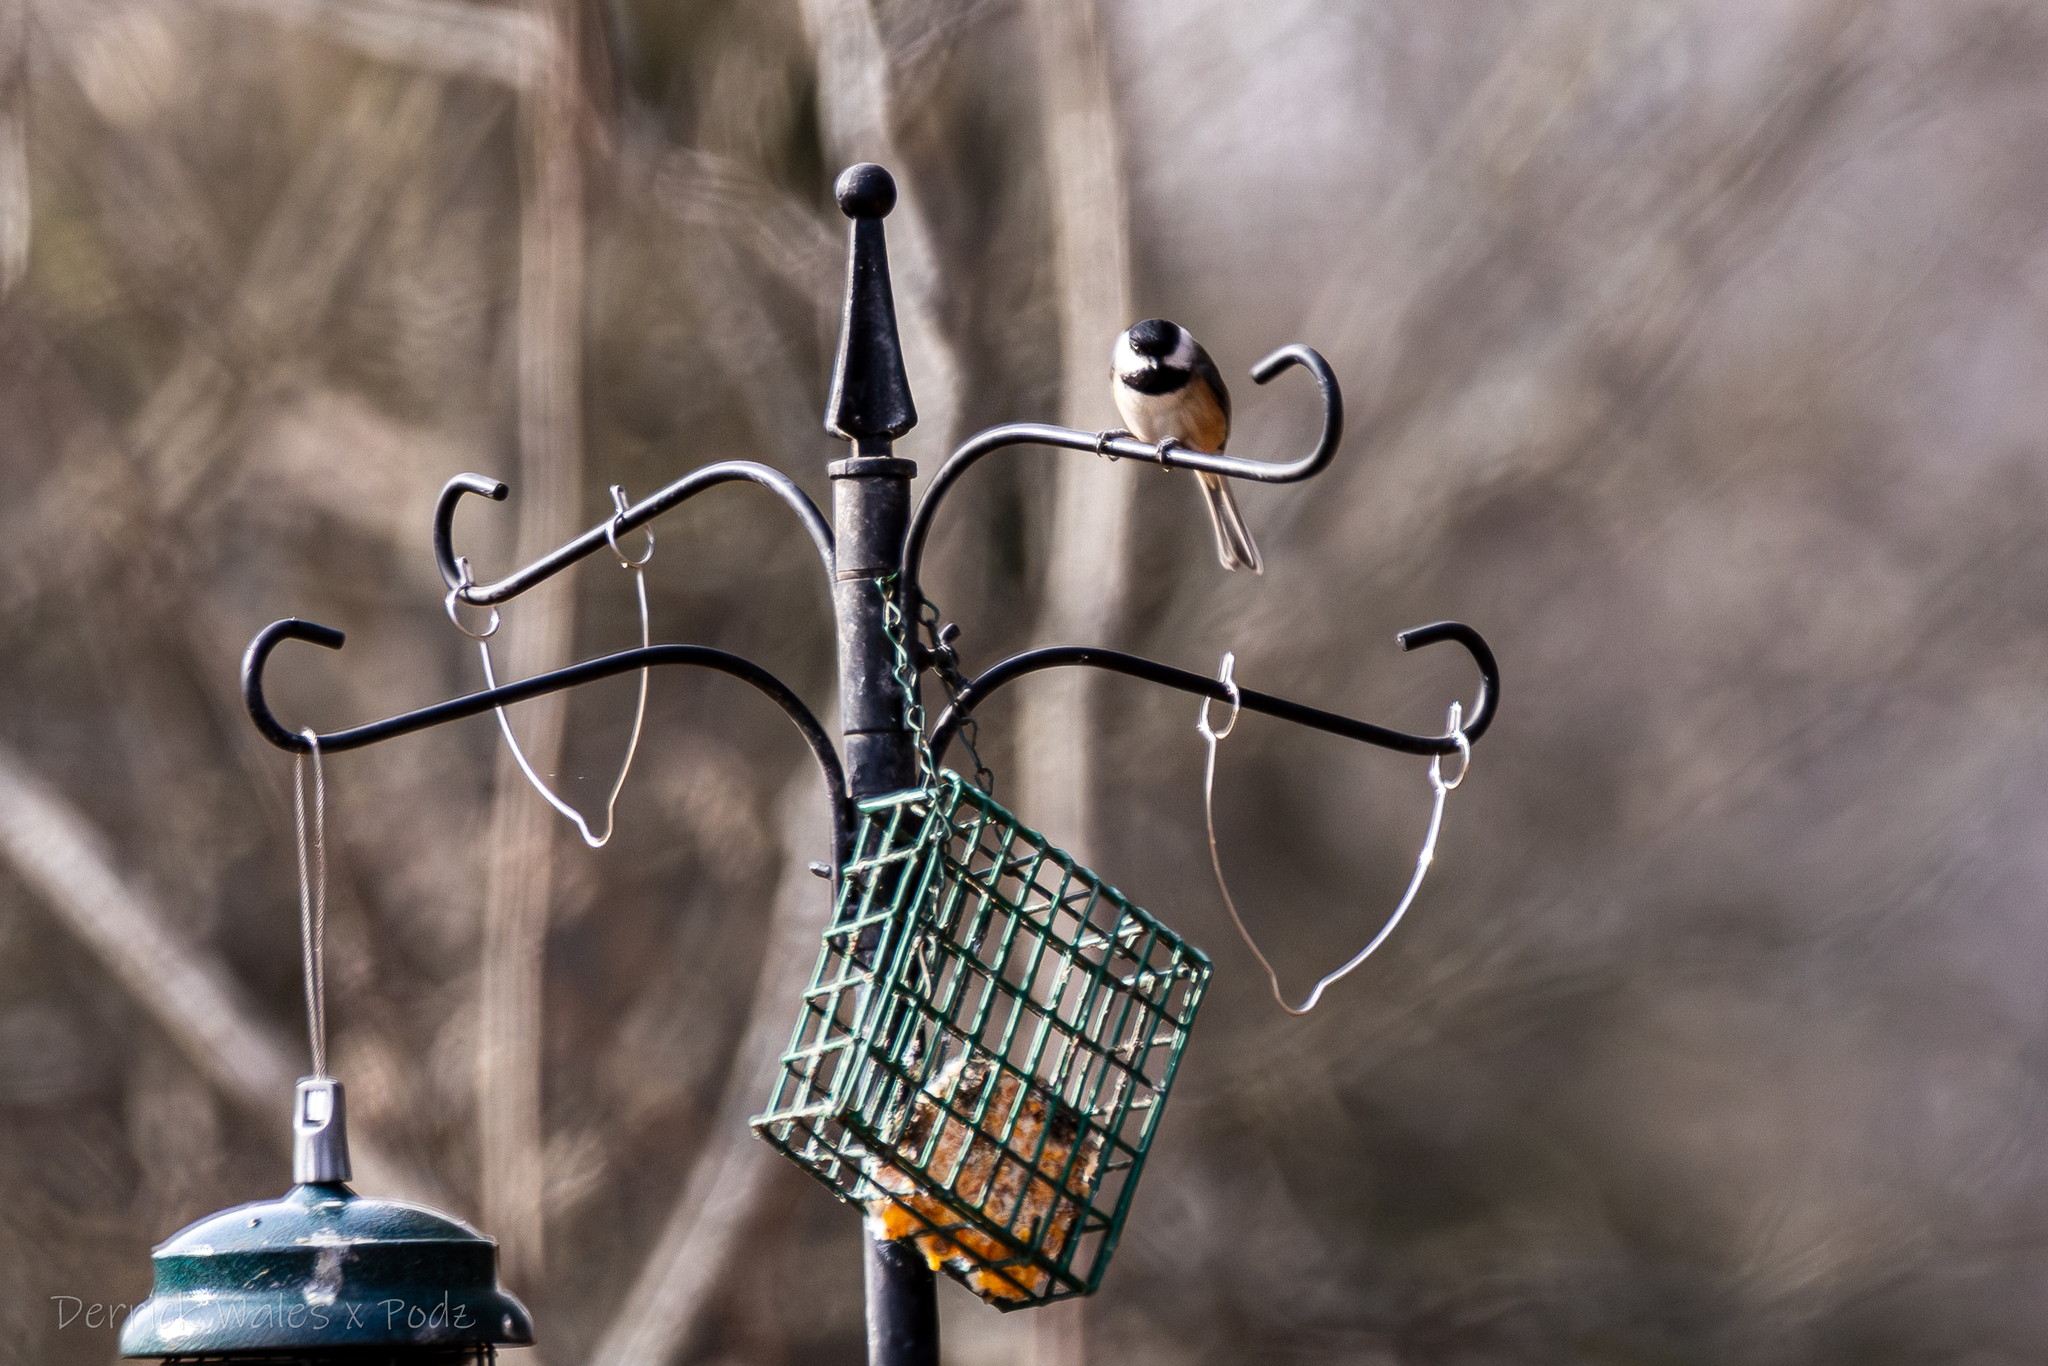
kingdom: Animalia
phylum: Chordata
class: Aves
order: Passeriformes
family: Paridae
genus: Poecile
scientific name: Poecile carolinensis
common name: Carolina chickadee
